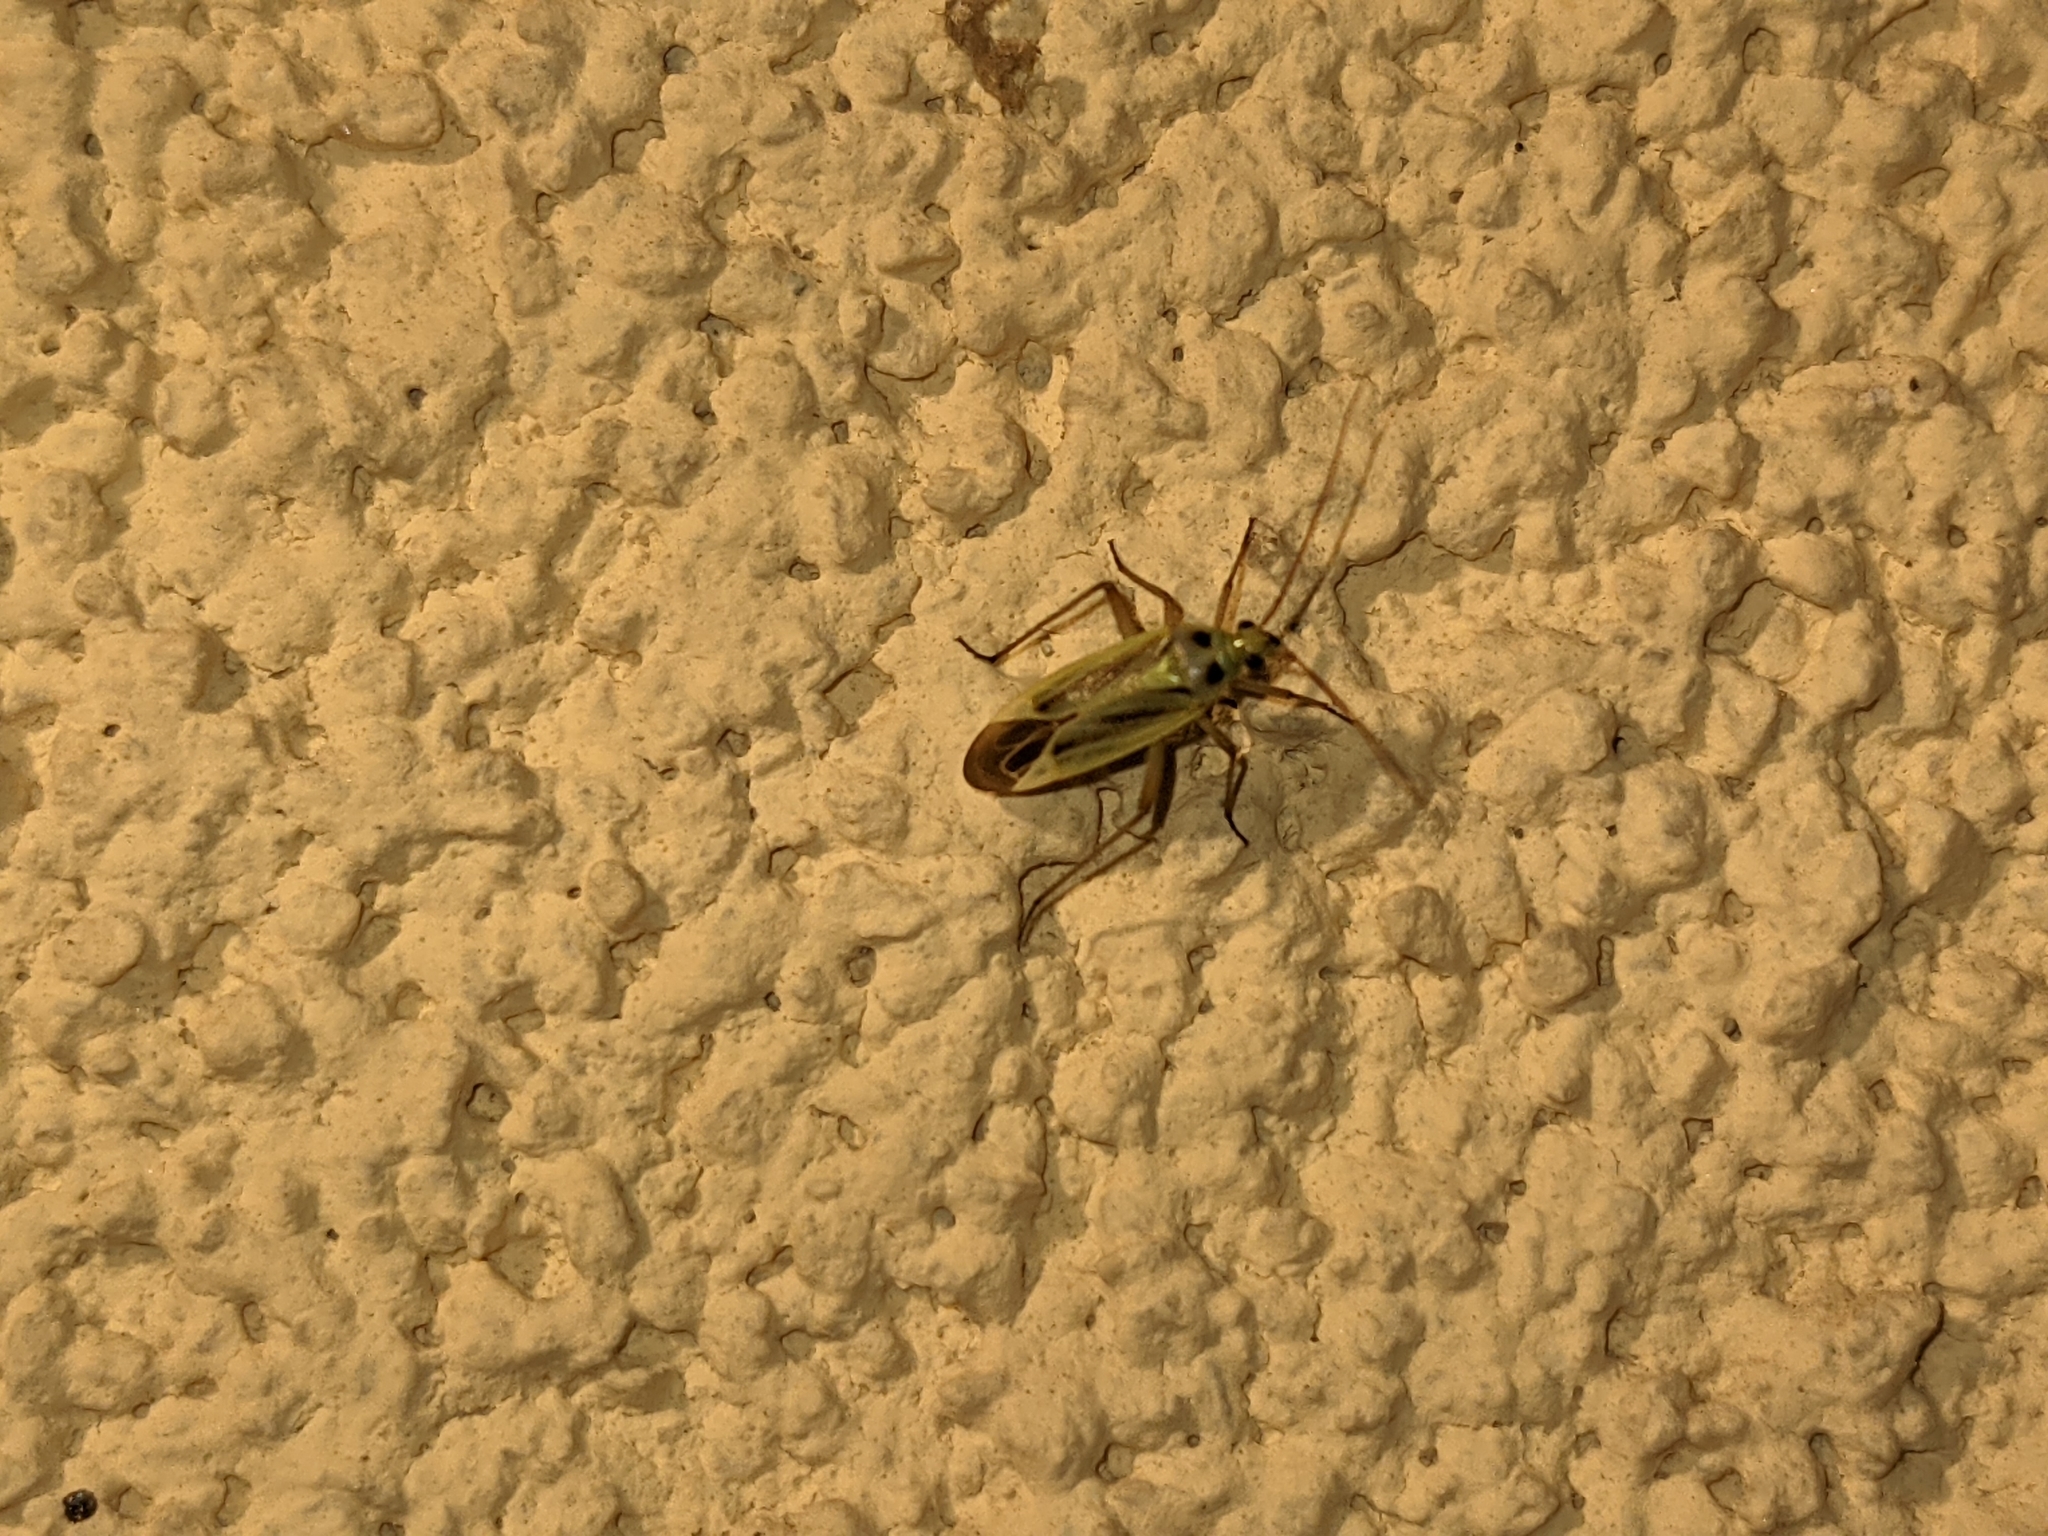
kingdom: Animalia
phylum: Arthropoda
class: Insecta
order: Hemiptera
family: Miridae
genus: Stenotus
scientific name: Stenotus binotatus
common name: Plant bug
